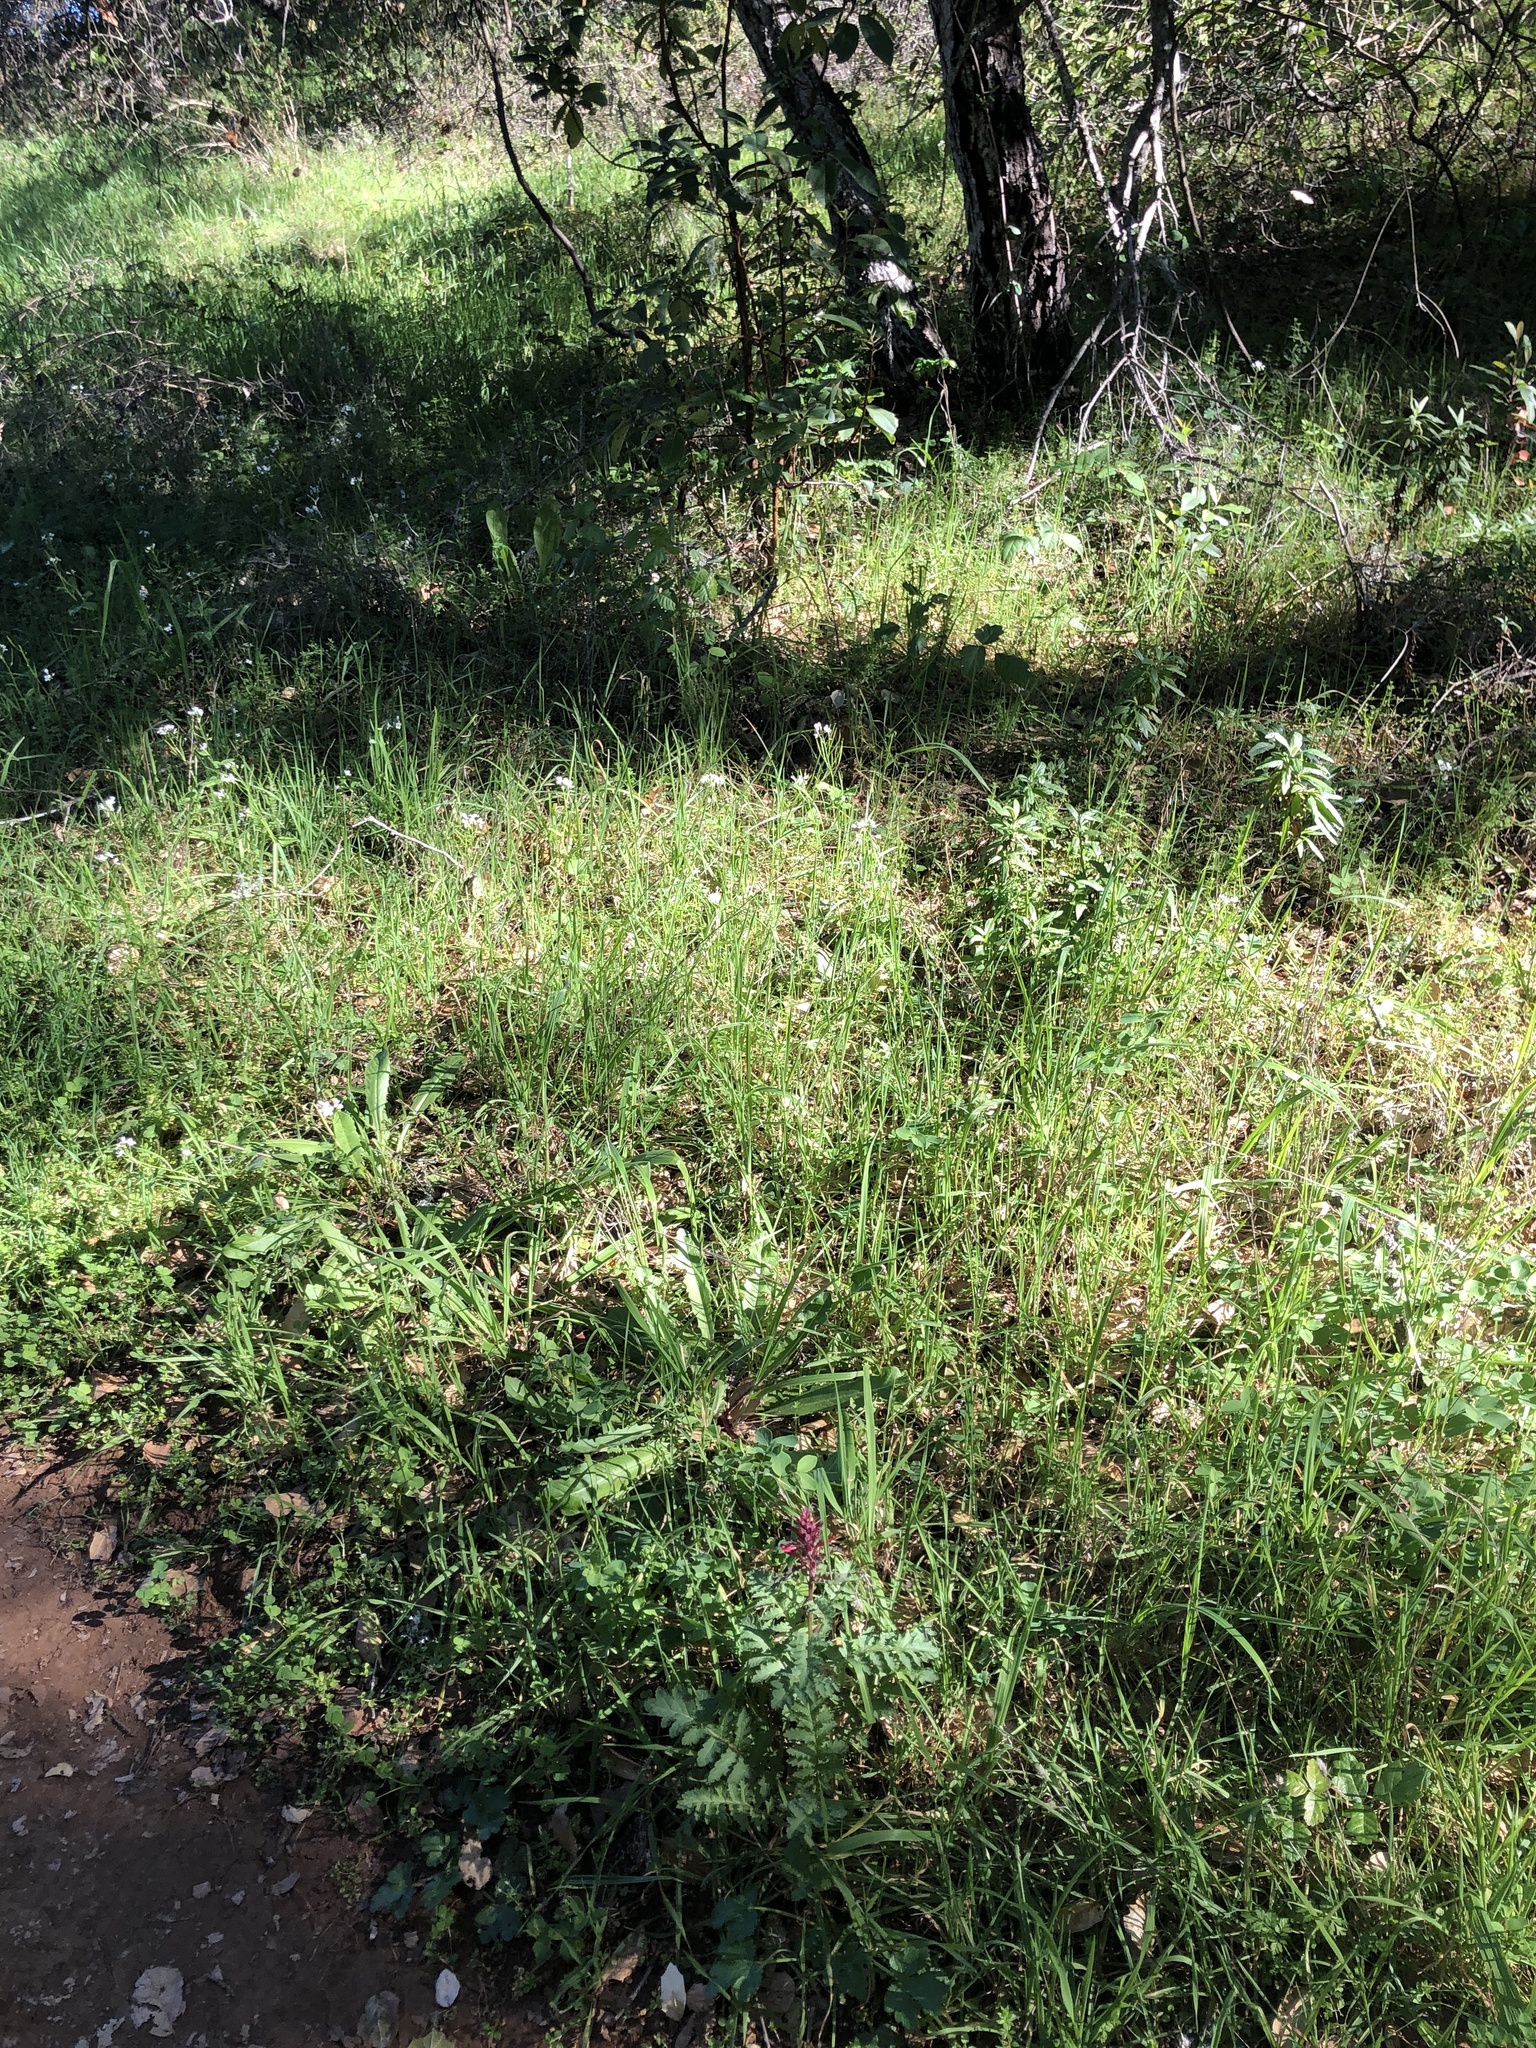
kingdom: Plantae
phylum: Tracheophyta
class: Magnoliopsida
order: Lamiales
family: Orobanchaceae
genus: Pedicularis
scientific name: Pedicularis densiflora
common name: Indian warrior
